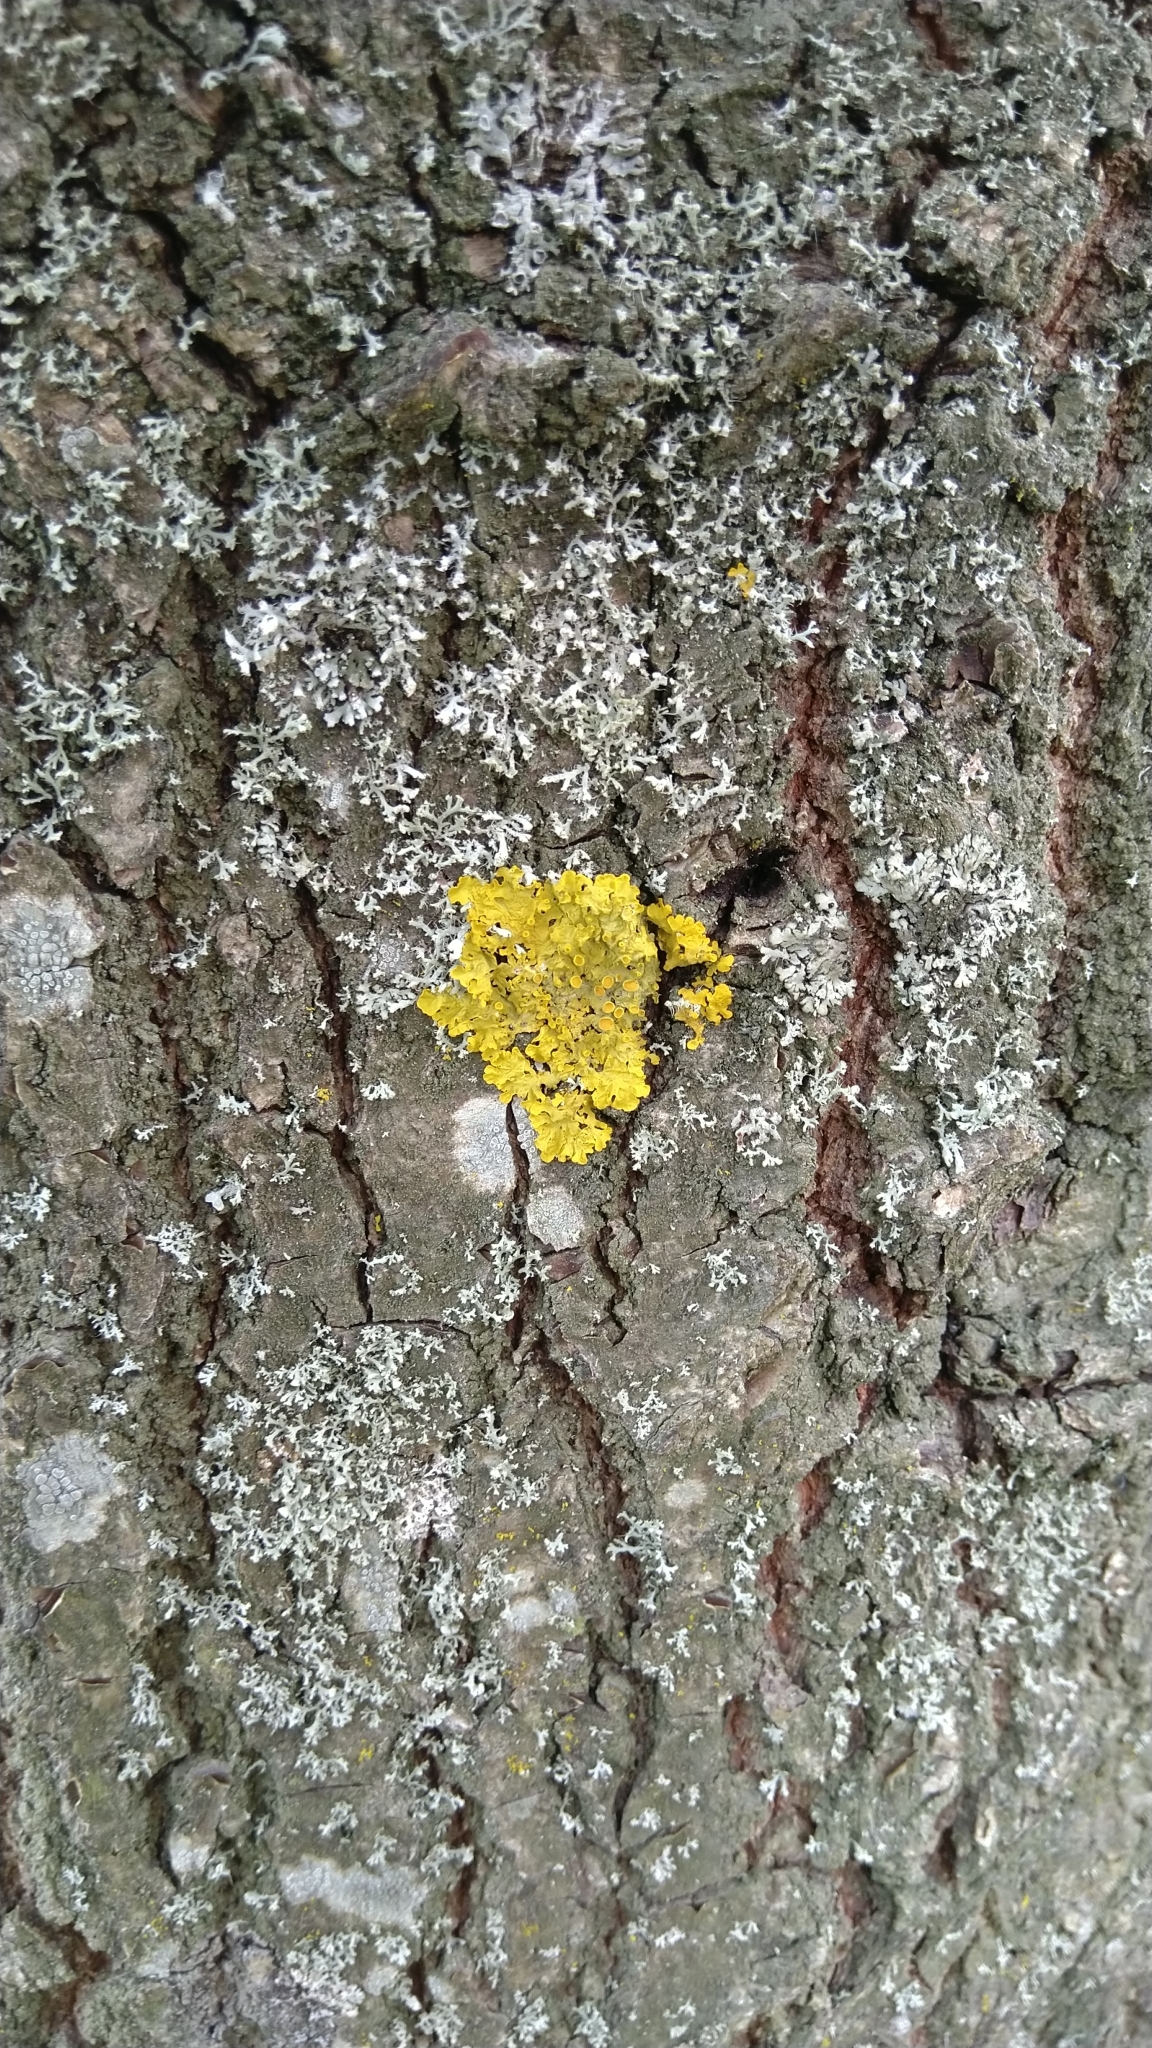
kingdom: Fungi
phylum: Ascomycota
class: Lecanoromycetes
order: Caliciales
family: Physciaceae
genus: Physcia
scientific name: Physcia adscendens
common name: Hooded rosette lichen
